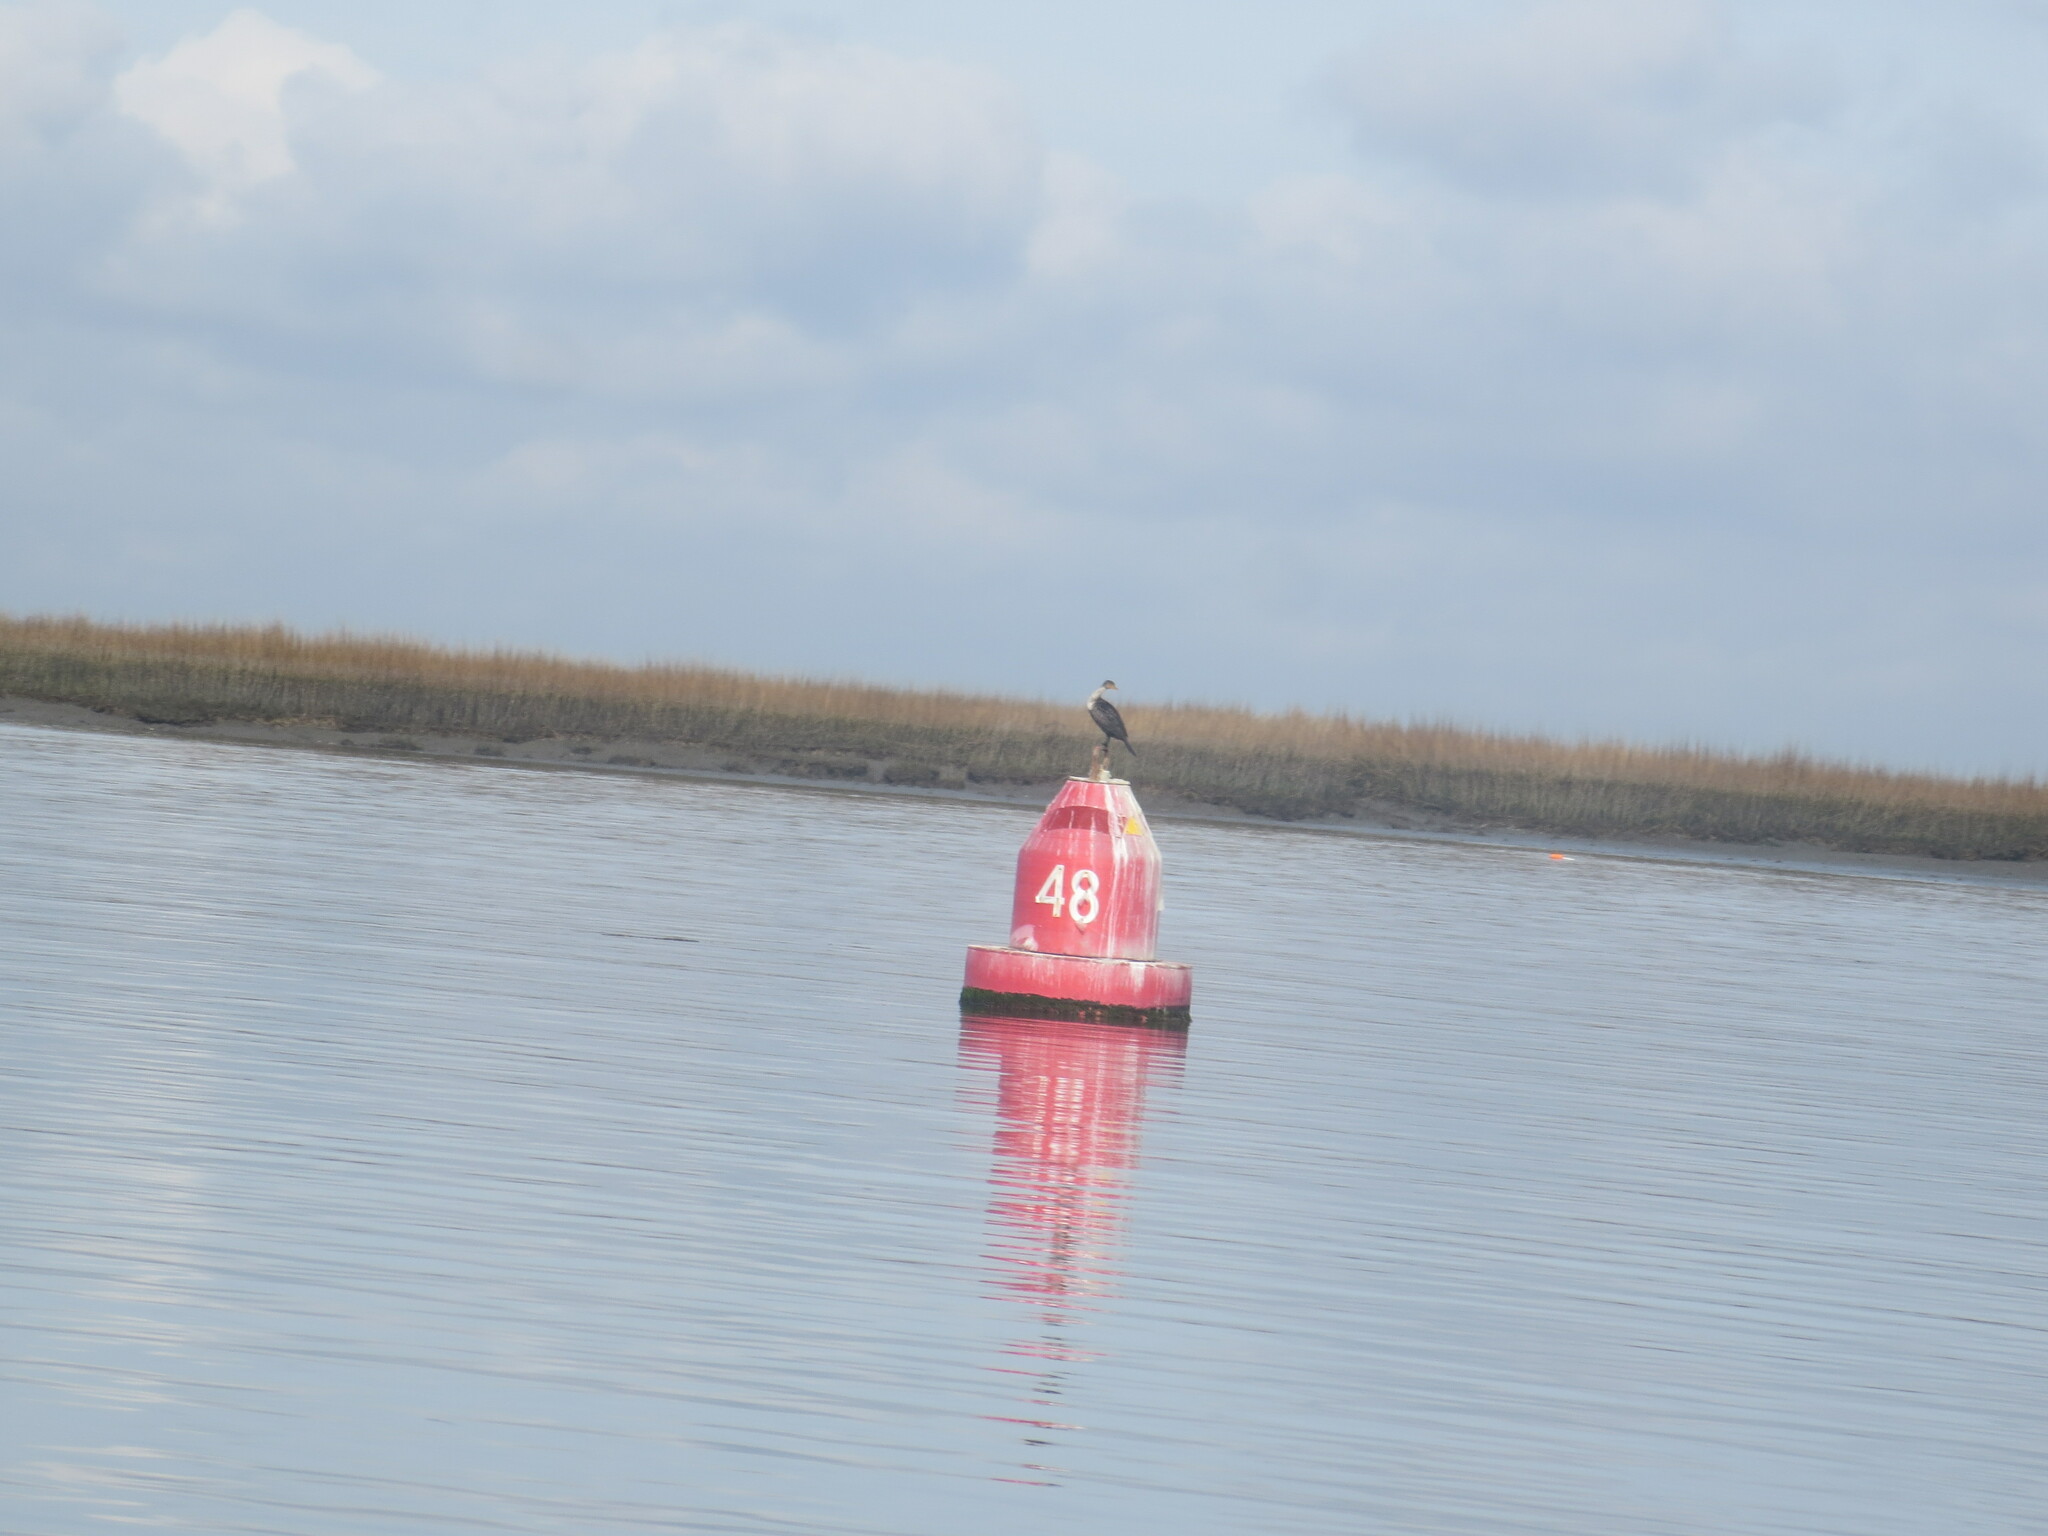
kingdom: Animalia
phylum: Chordata
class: Aves
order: Suliformes
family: Phalacrocoracidae
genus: Phalacrocorax
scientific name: Phalacrocorax auritus
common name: Double-crested cormorant
